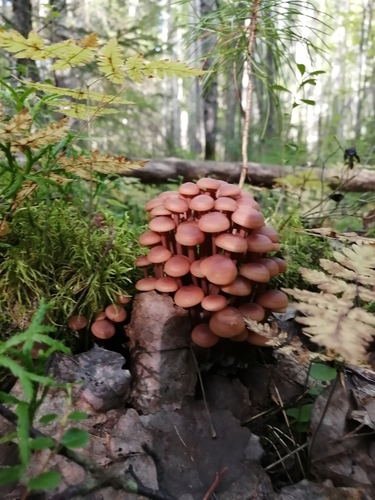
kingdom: Fungi
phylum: Basidiomycota
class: Agaricomycetes
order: Agaricales
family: Omphalotaceae
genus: Collybiopsis
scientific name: Collybiopsis
